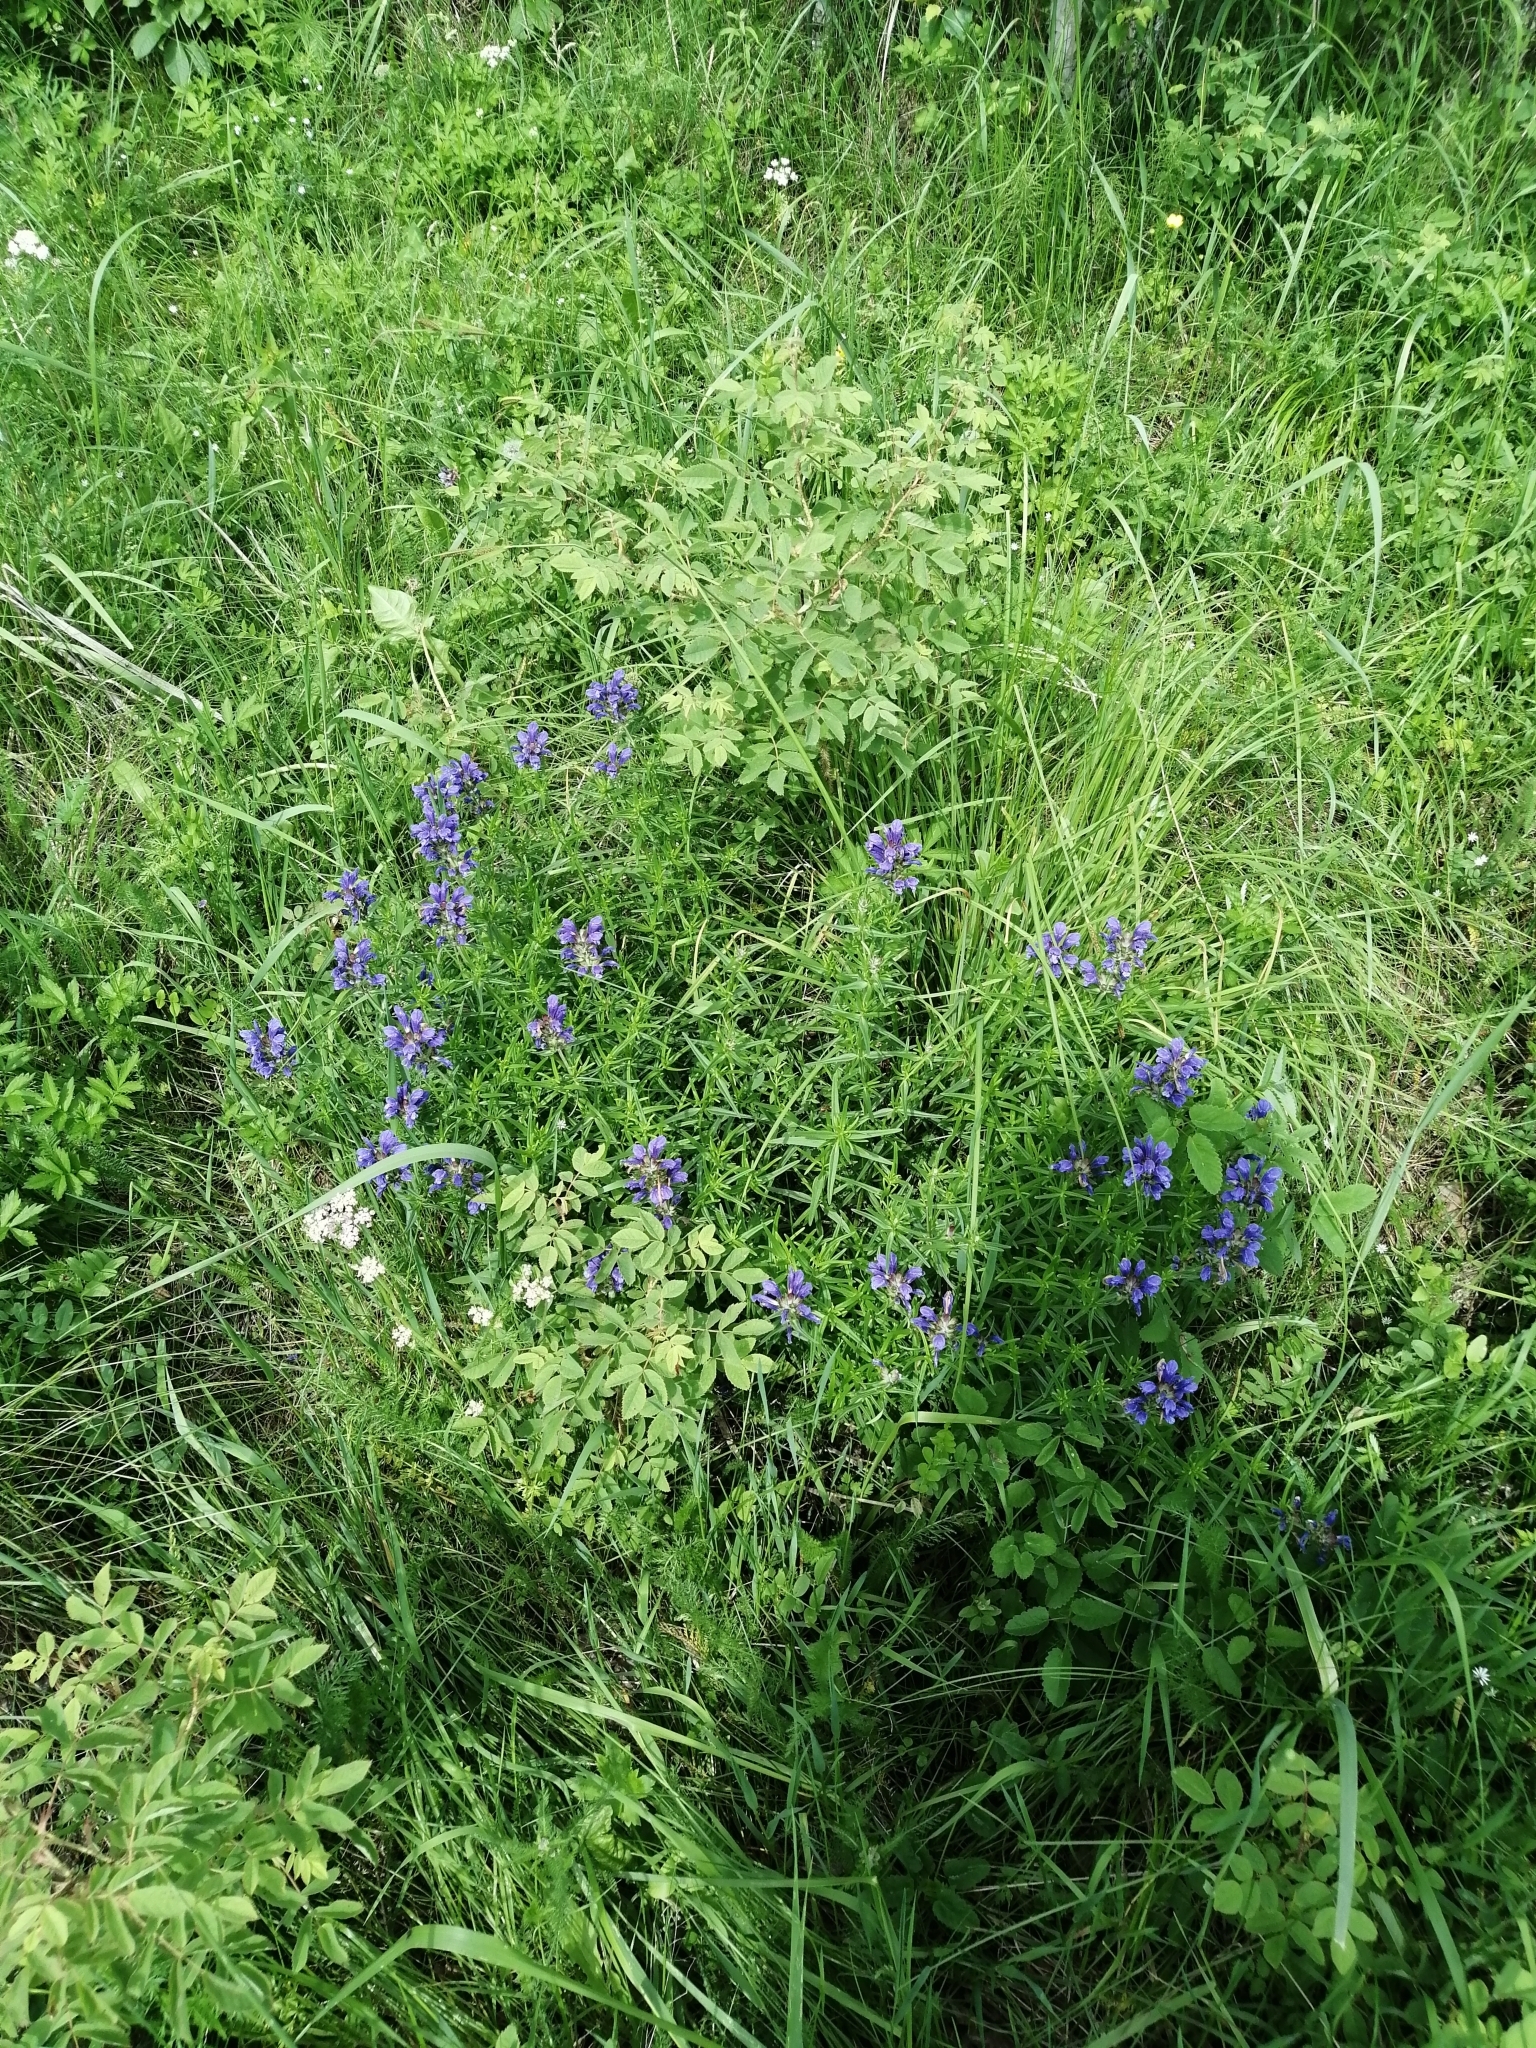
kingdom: Plantae
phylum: Tracheophyta
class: Magnoliopsida
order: Lamiales
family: Lamiaceae
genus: Dracocephalum
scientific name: Dracocephalum ruyschiana
